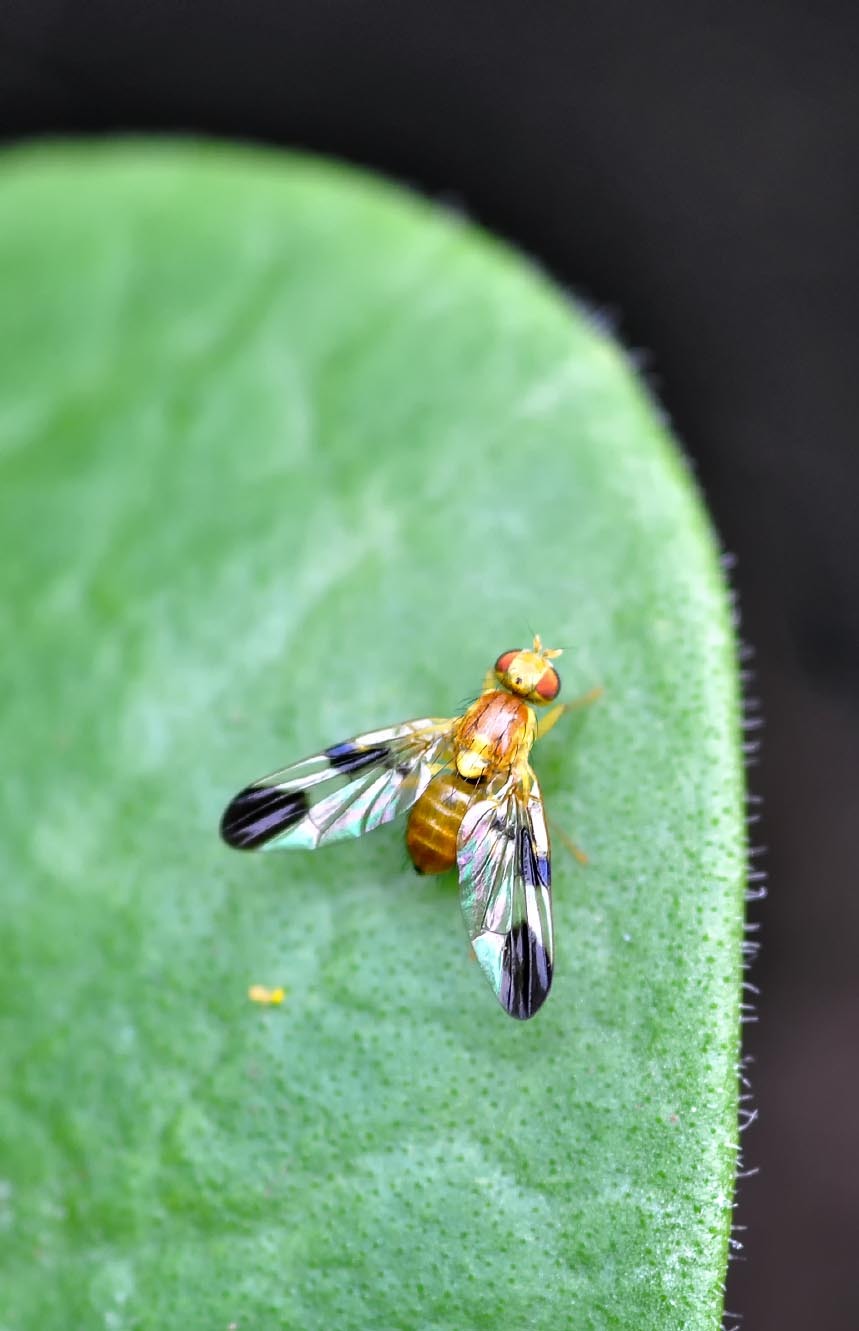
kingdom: Animalia
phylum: Arthropoda
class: Insecta
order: Diptera
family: Tephritidae
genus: Trypeta
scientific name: Trypeta zoe
